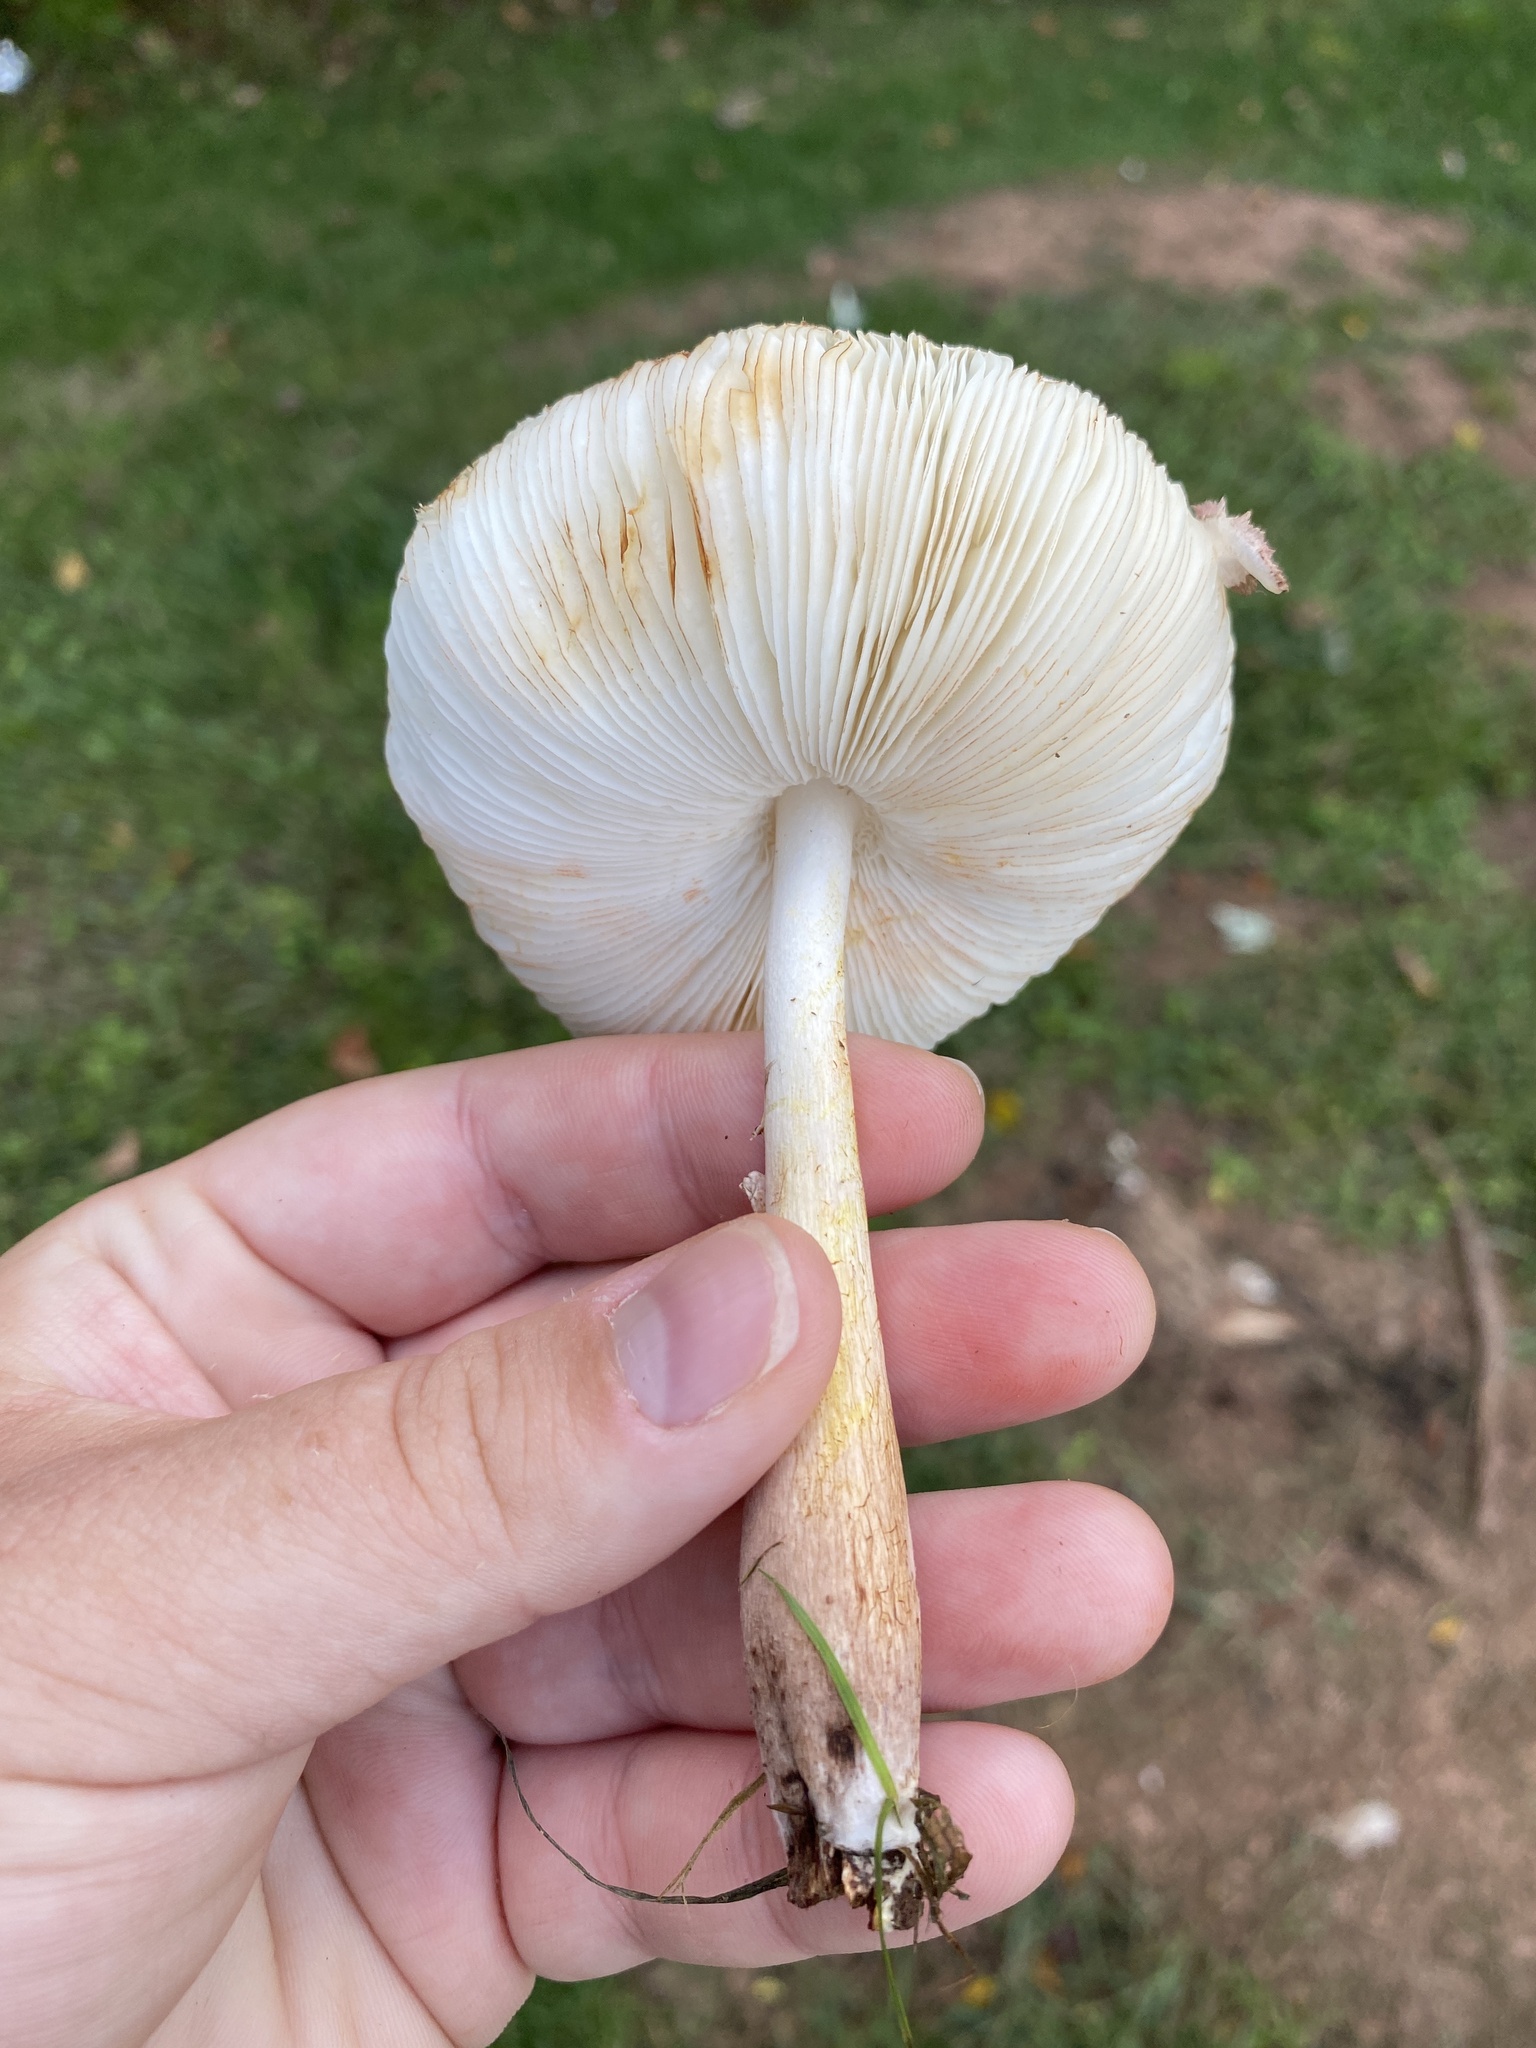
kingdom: Fungi
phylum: Basidiomycota
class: Agaricomycetes
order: Agaricales
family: Agaricaceae
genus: Leucoagaricus
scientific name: Leucoagaricus americanus
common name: Reddening lepiota
